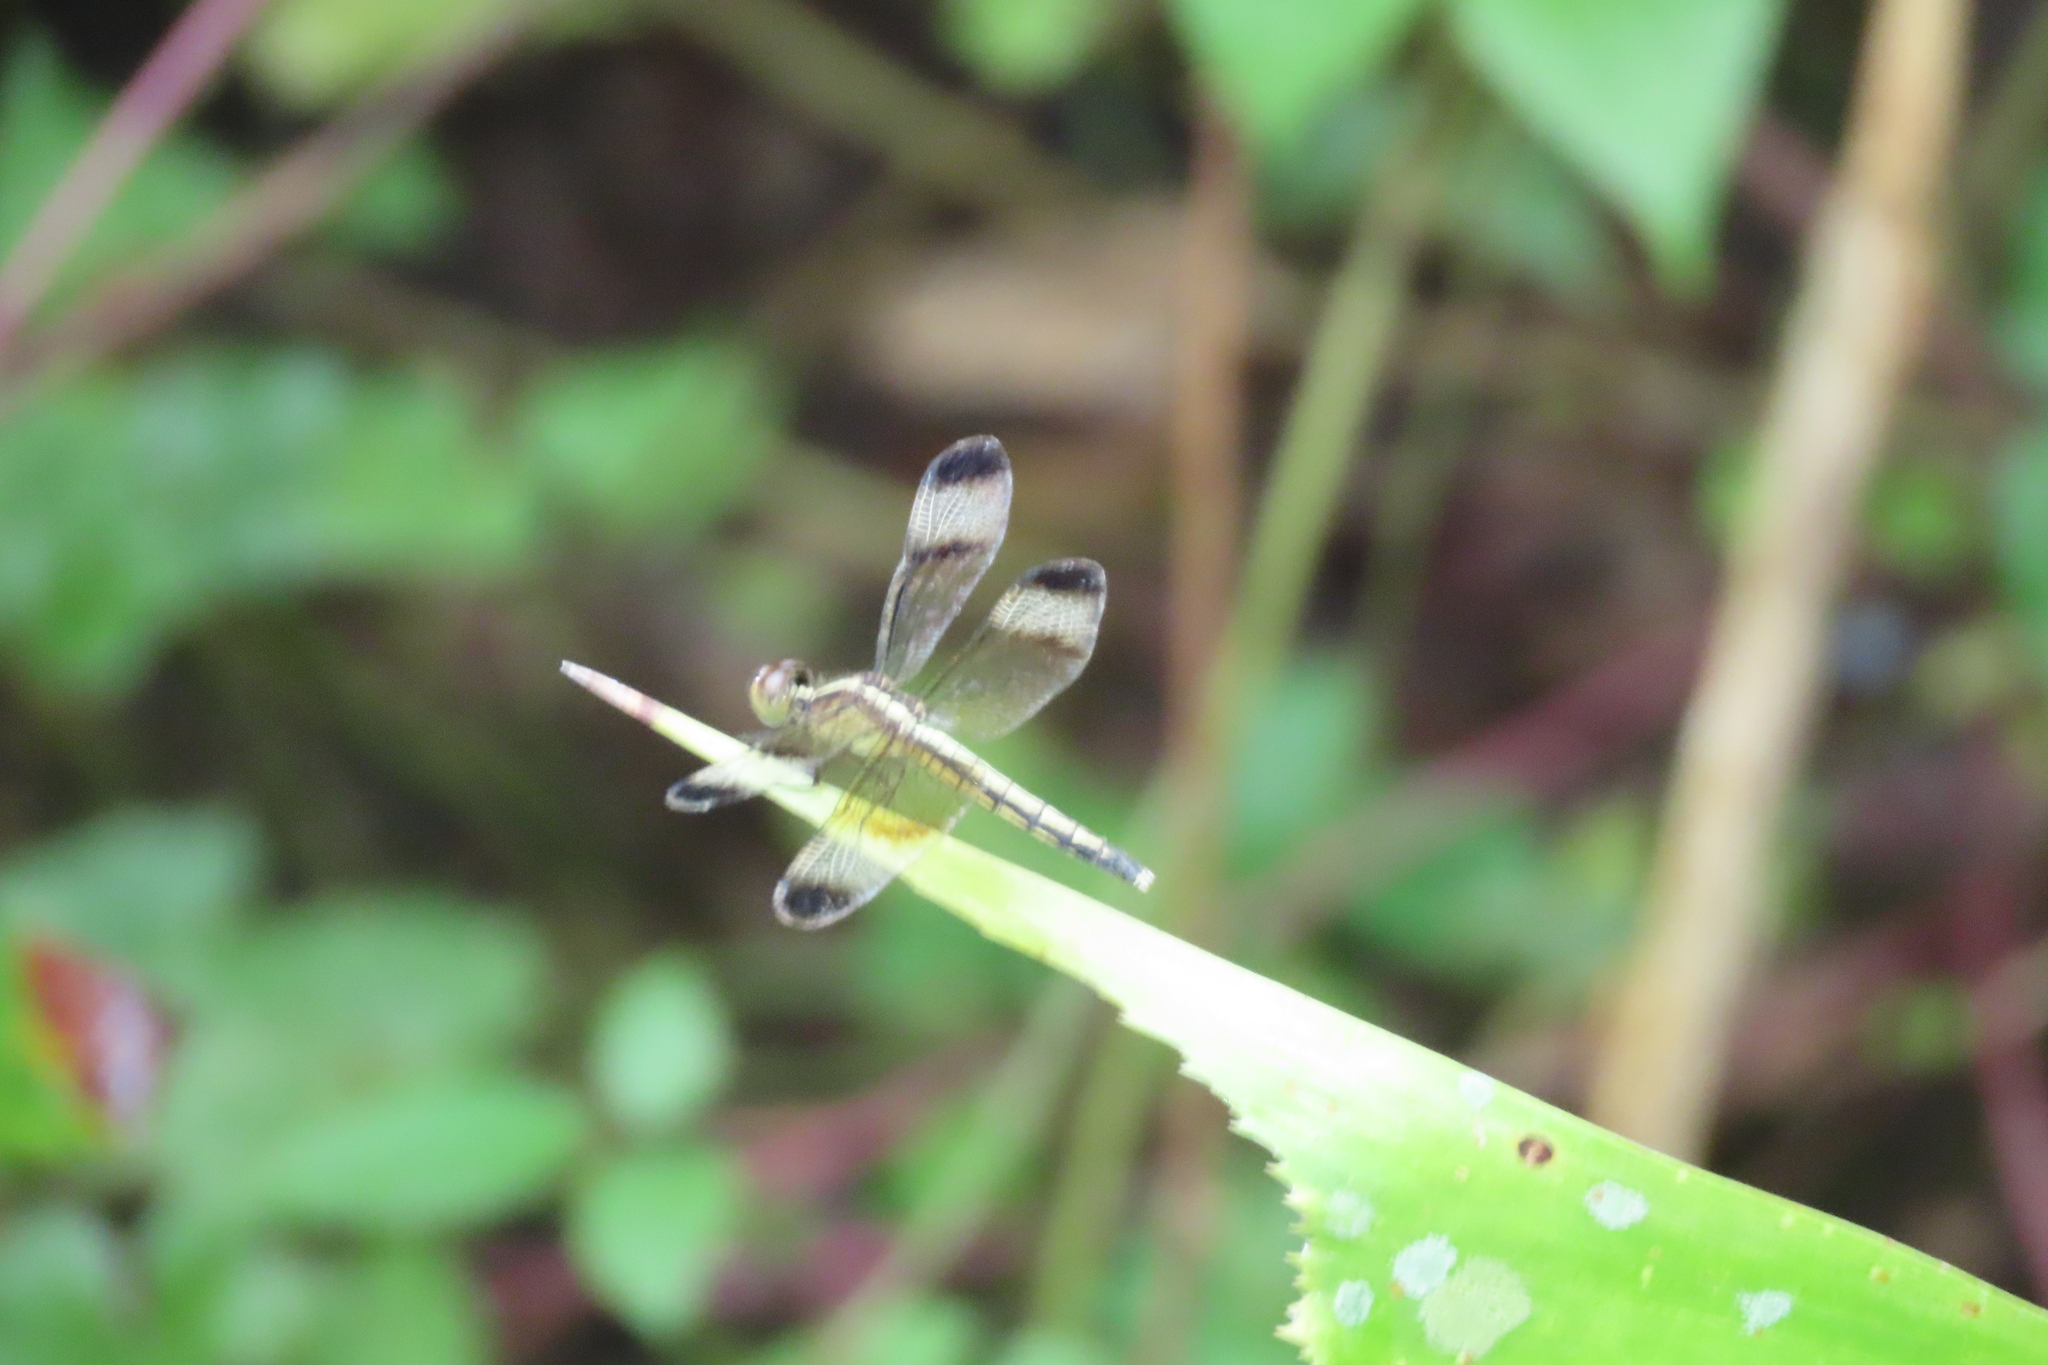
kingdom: Animalia
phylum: Arthropoda
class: Insecta
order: Odonata
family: Libellulidae
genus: Neurothemis
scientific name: Neurothemis tullia
